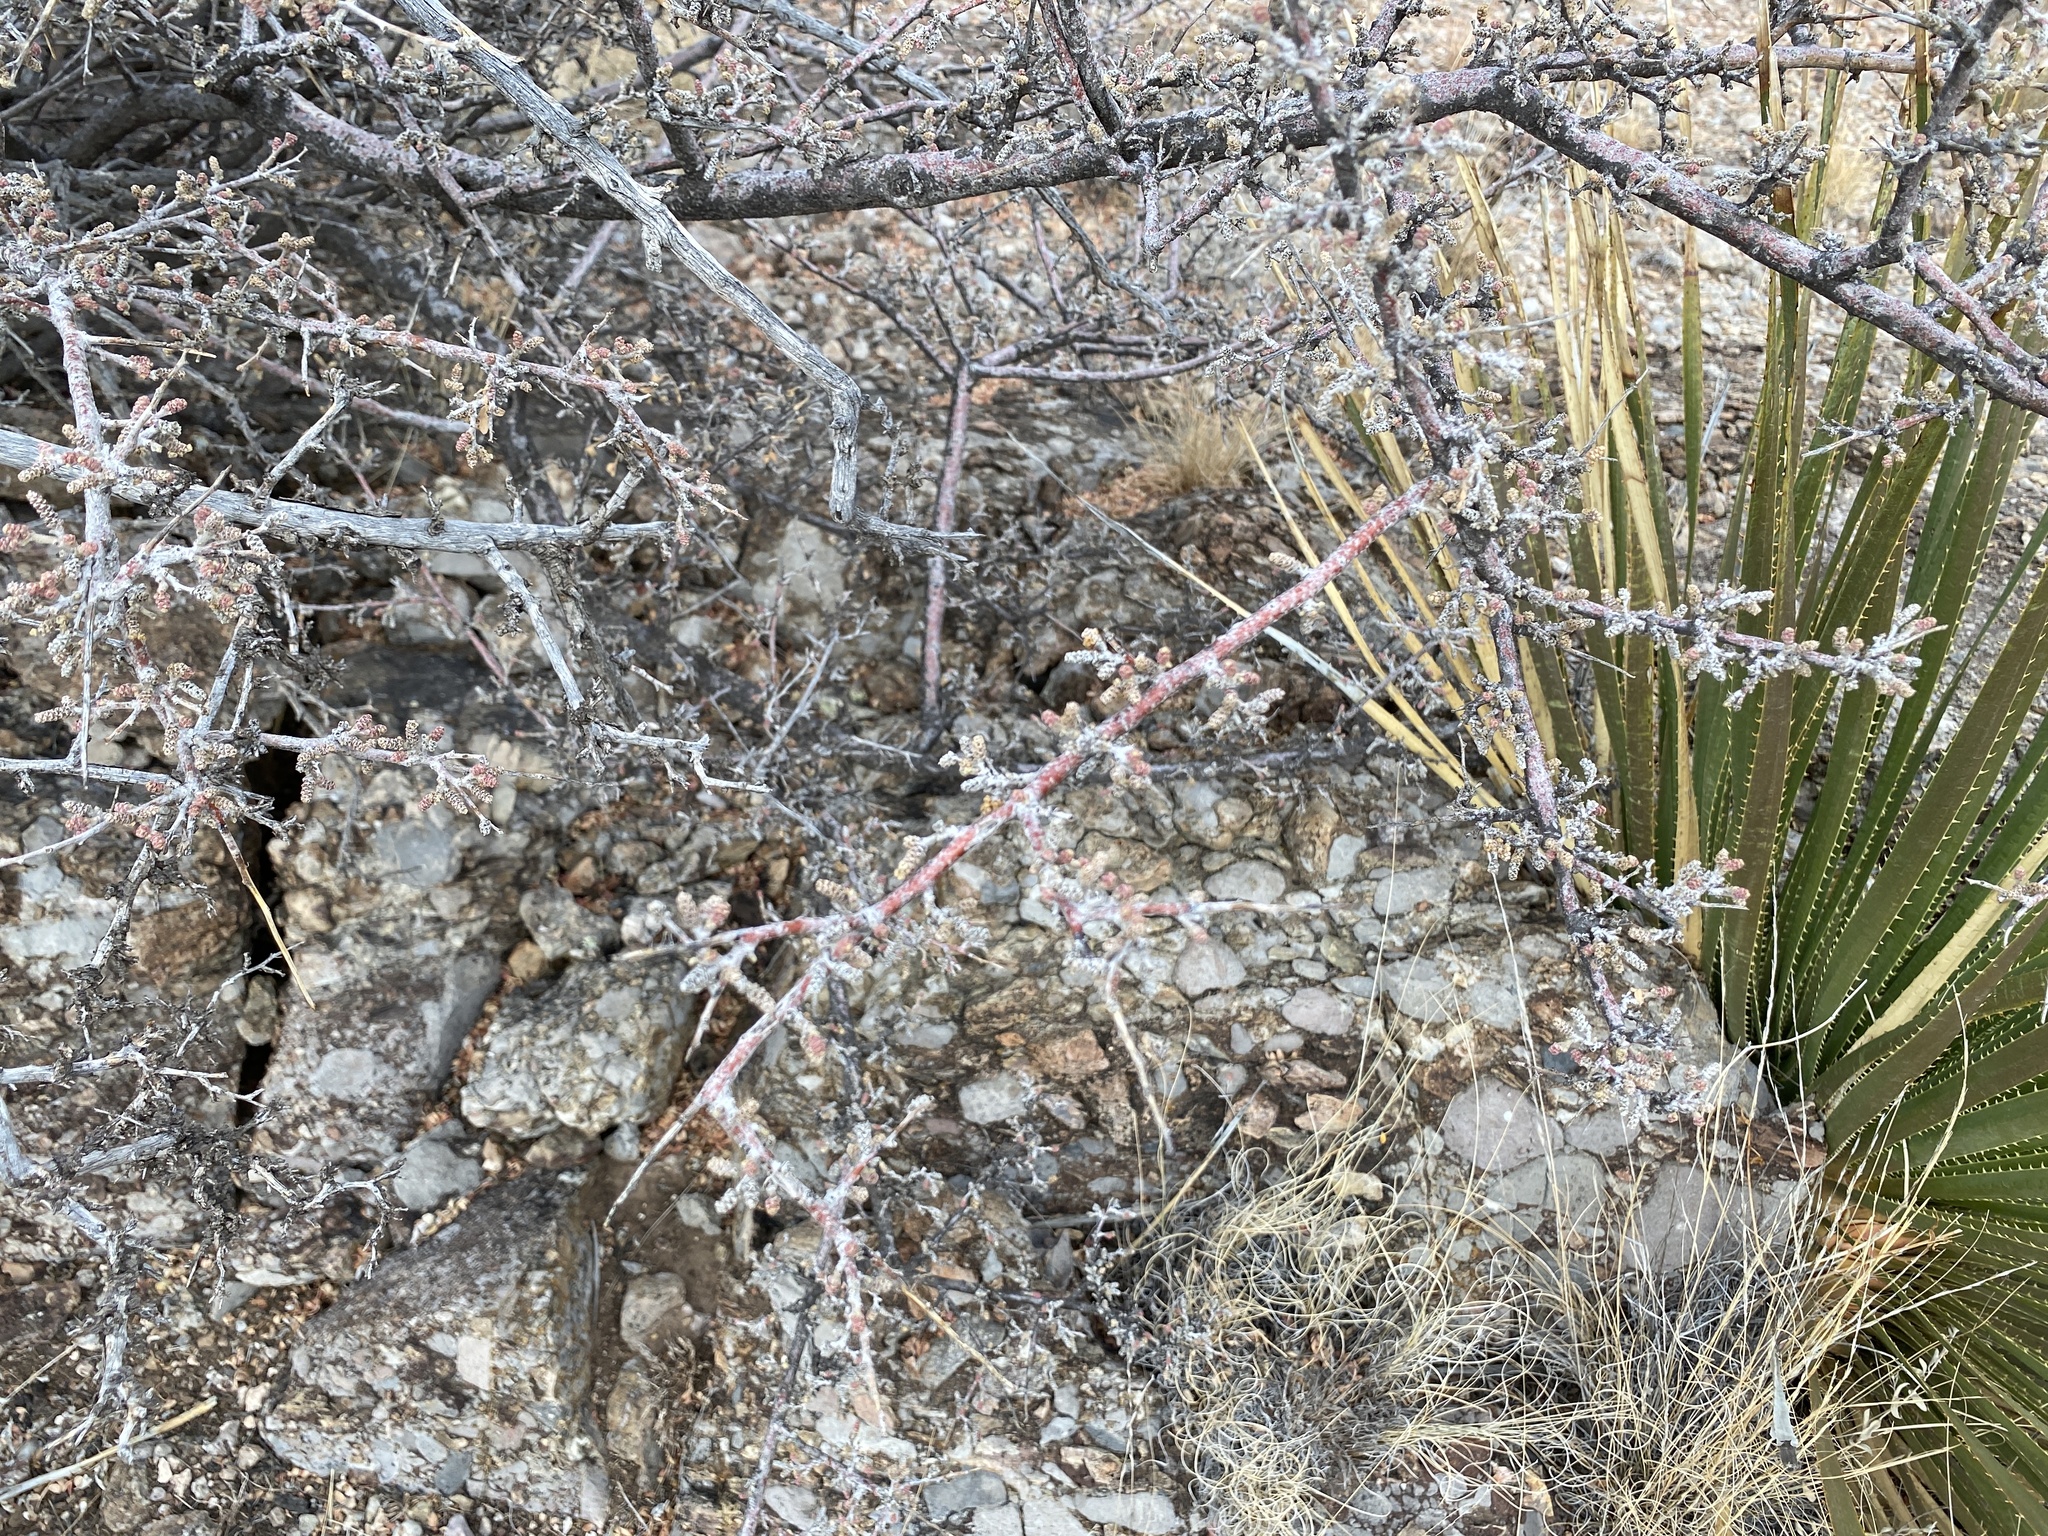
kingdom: Plantae
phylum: Tracheophyta
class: Magnoliopsida
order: Sapindales
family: Anacardiaceae
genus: Rhus
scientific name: Rhus microphylla
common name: Desert sumac
